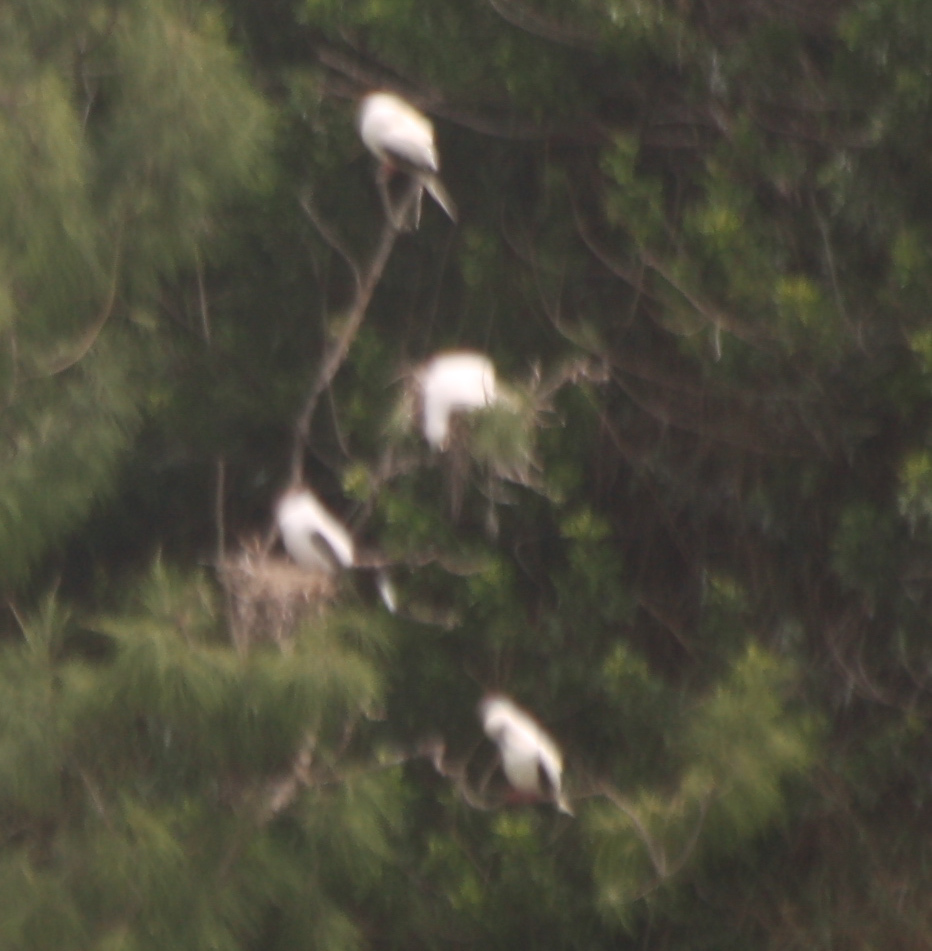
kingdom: Animalia
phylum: Chordata
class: Aves
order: Suliformes
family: Sulidae
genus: Sula
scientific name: Sula sula
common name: Red-footed booby
